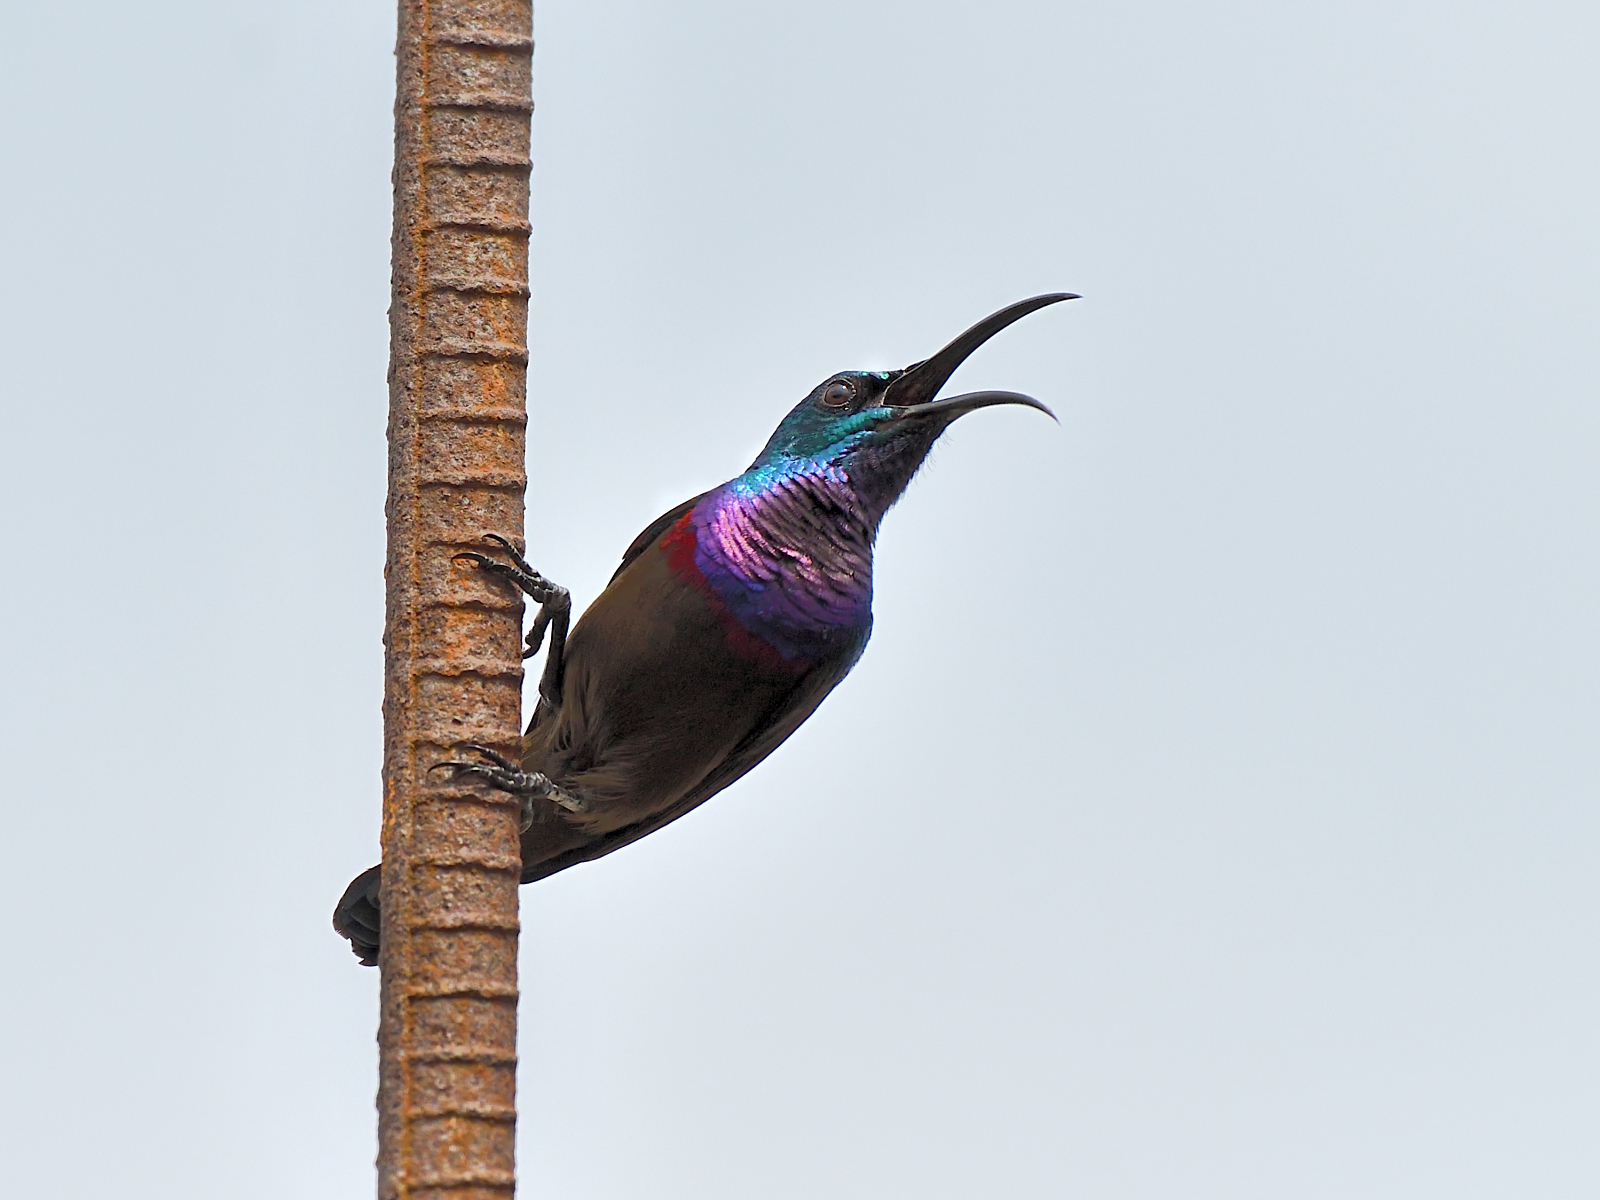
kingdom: Animalia
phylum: Chordata
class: Aves
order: Passeriformes
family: Nectariniidae
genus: Cinnyris
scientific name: Cinnyris lotenius
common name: Loten's sunbird
